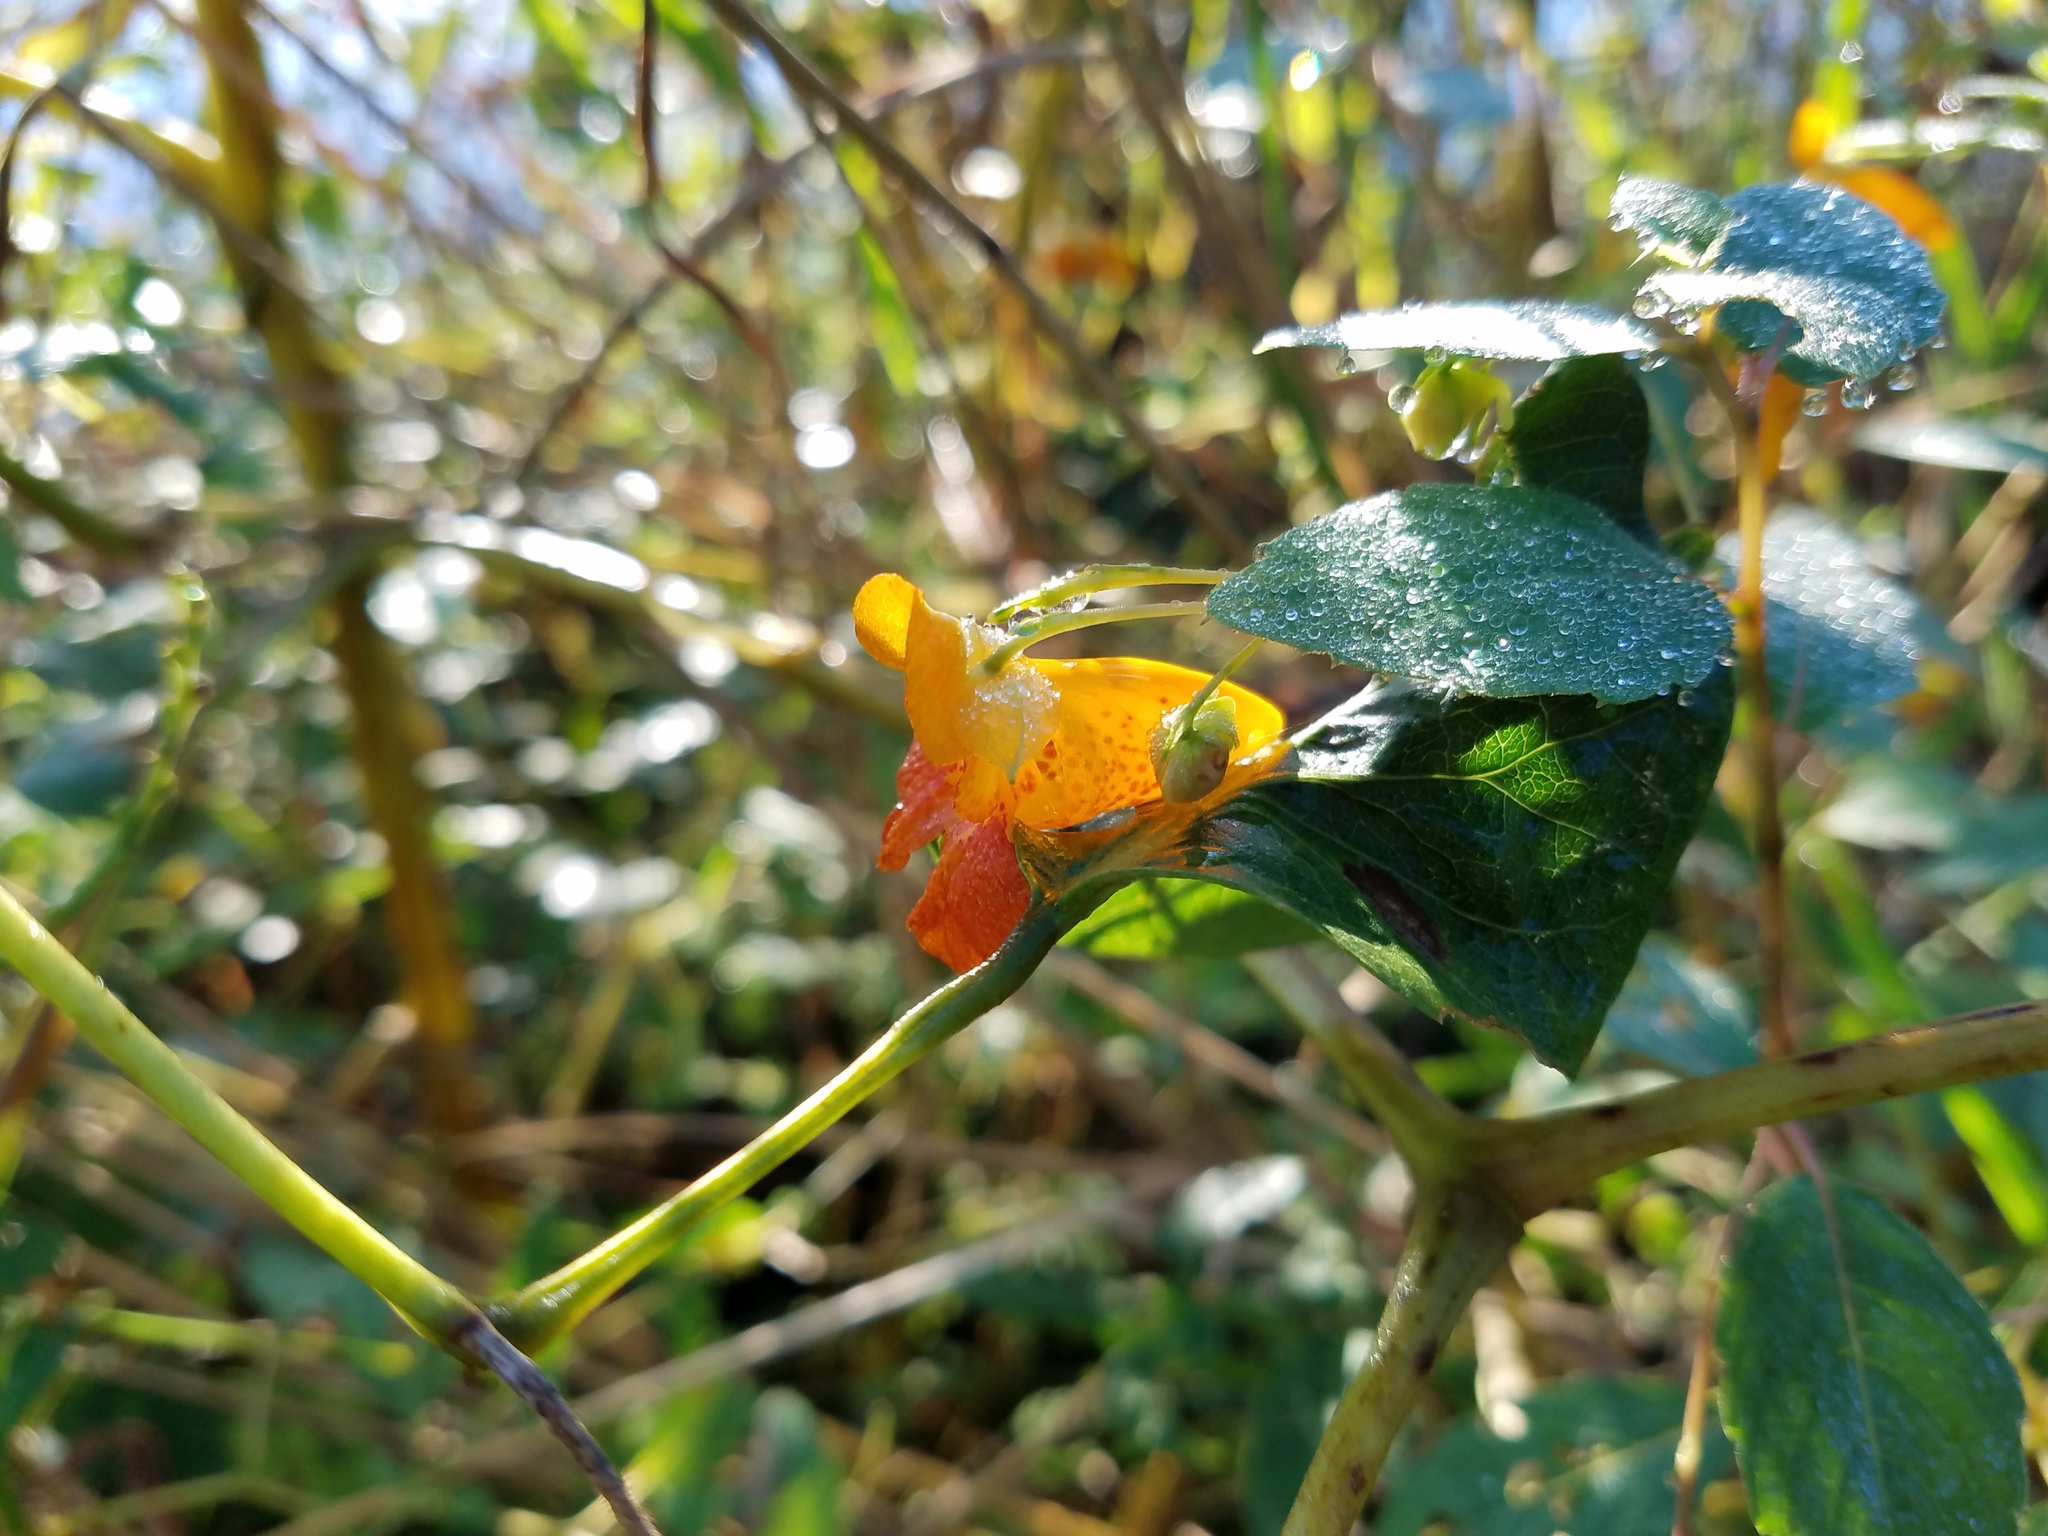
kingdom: Plantae
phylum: Tracheophyta
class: Magnoliopsida
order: Ericales
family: Balsaminaceae
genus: Impatiens
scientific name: Impatiens capensis
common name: Orange balsam
